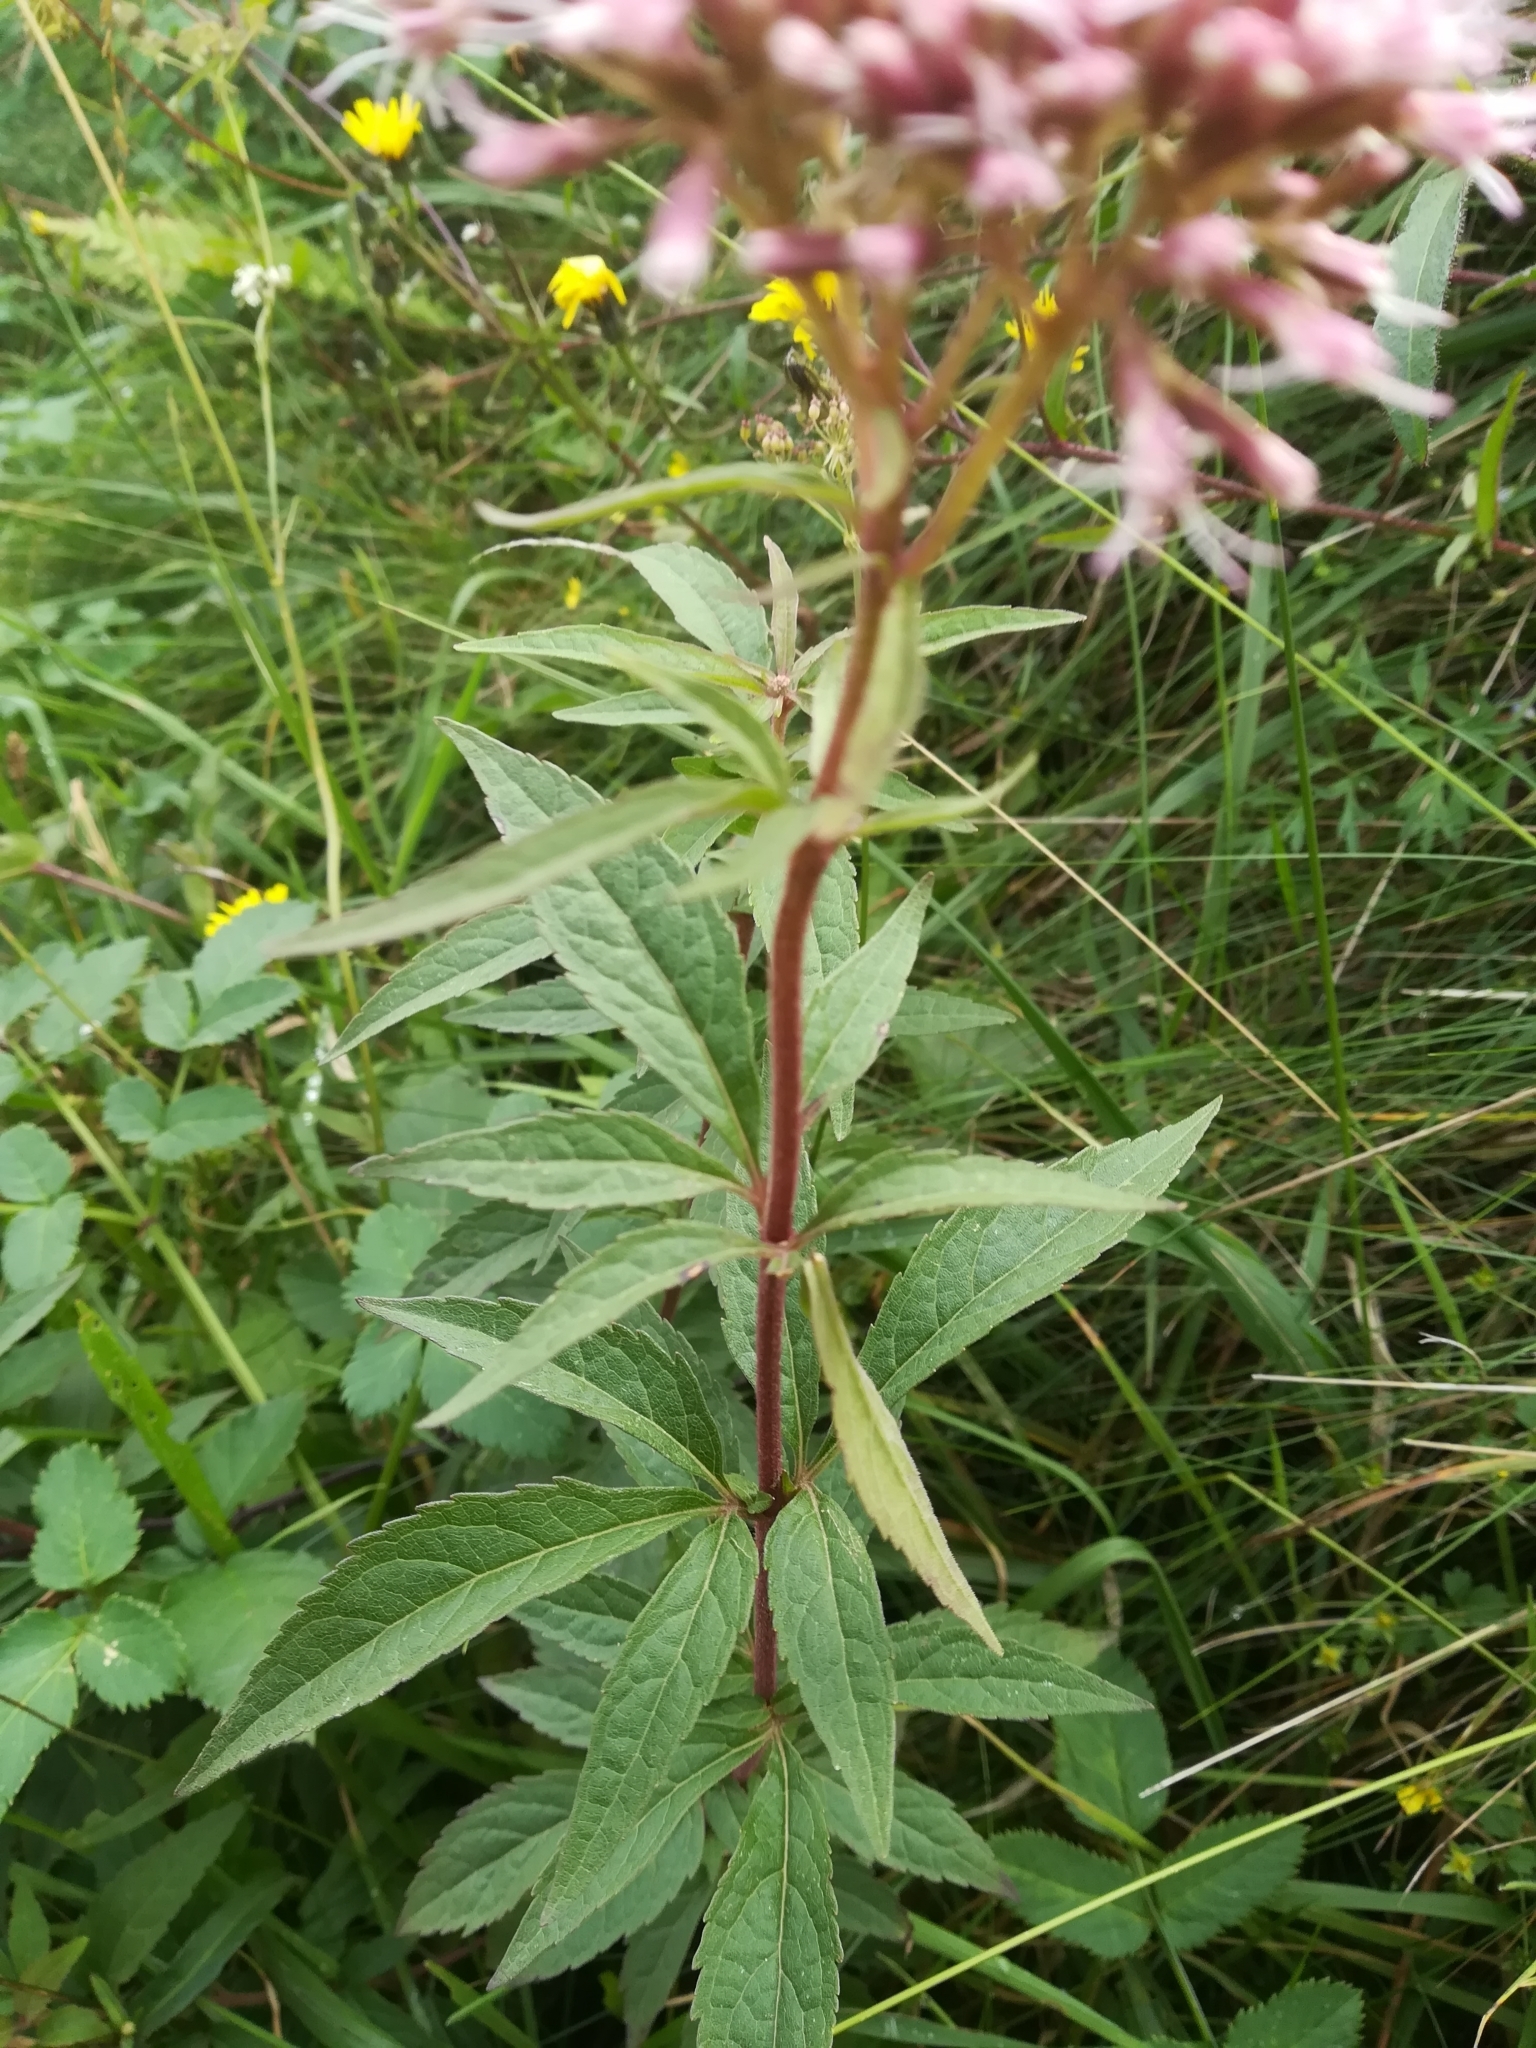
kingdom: Plantae
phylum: Tracheophyta
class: Magnoliopsida
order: Asterales
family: Asteraceae
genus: Eupatorium
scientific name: Eupatorium cannabinum
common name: Hemp-agrimony
